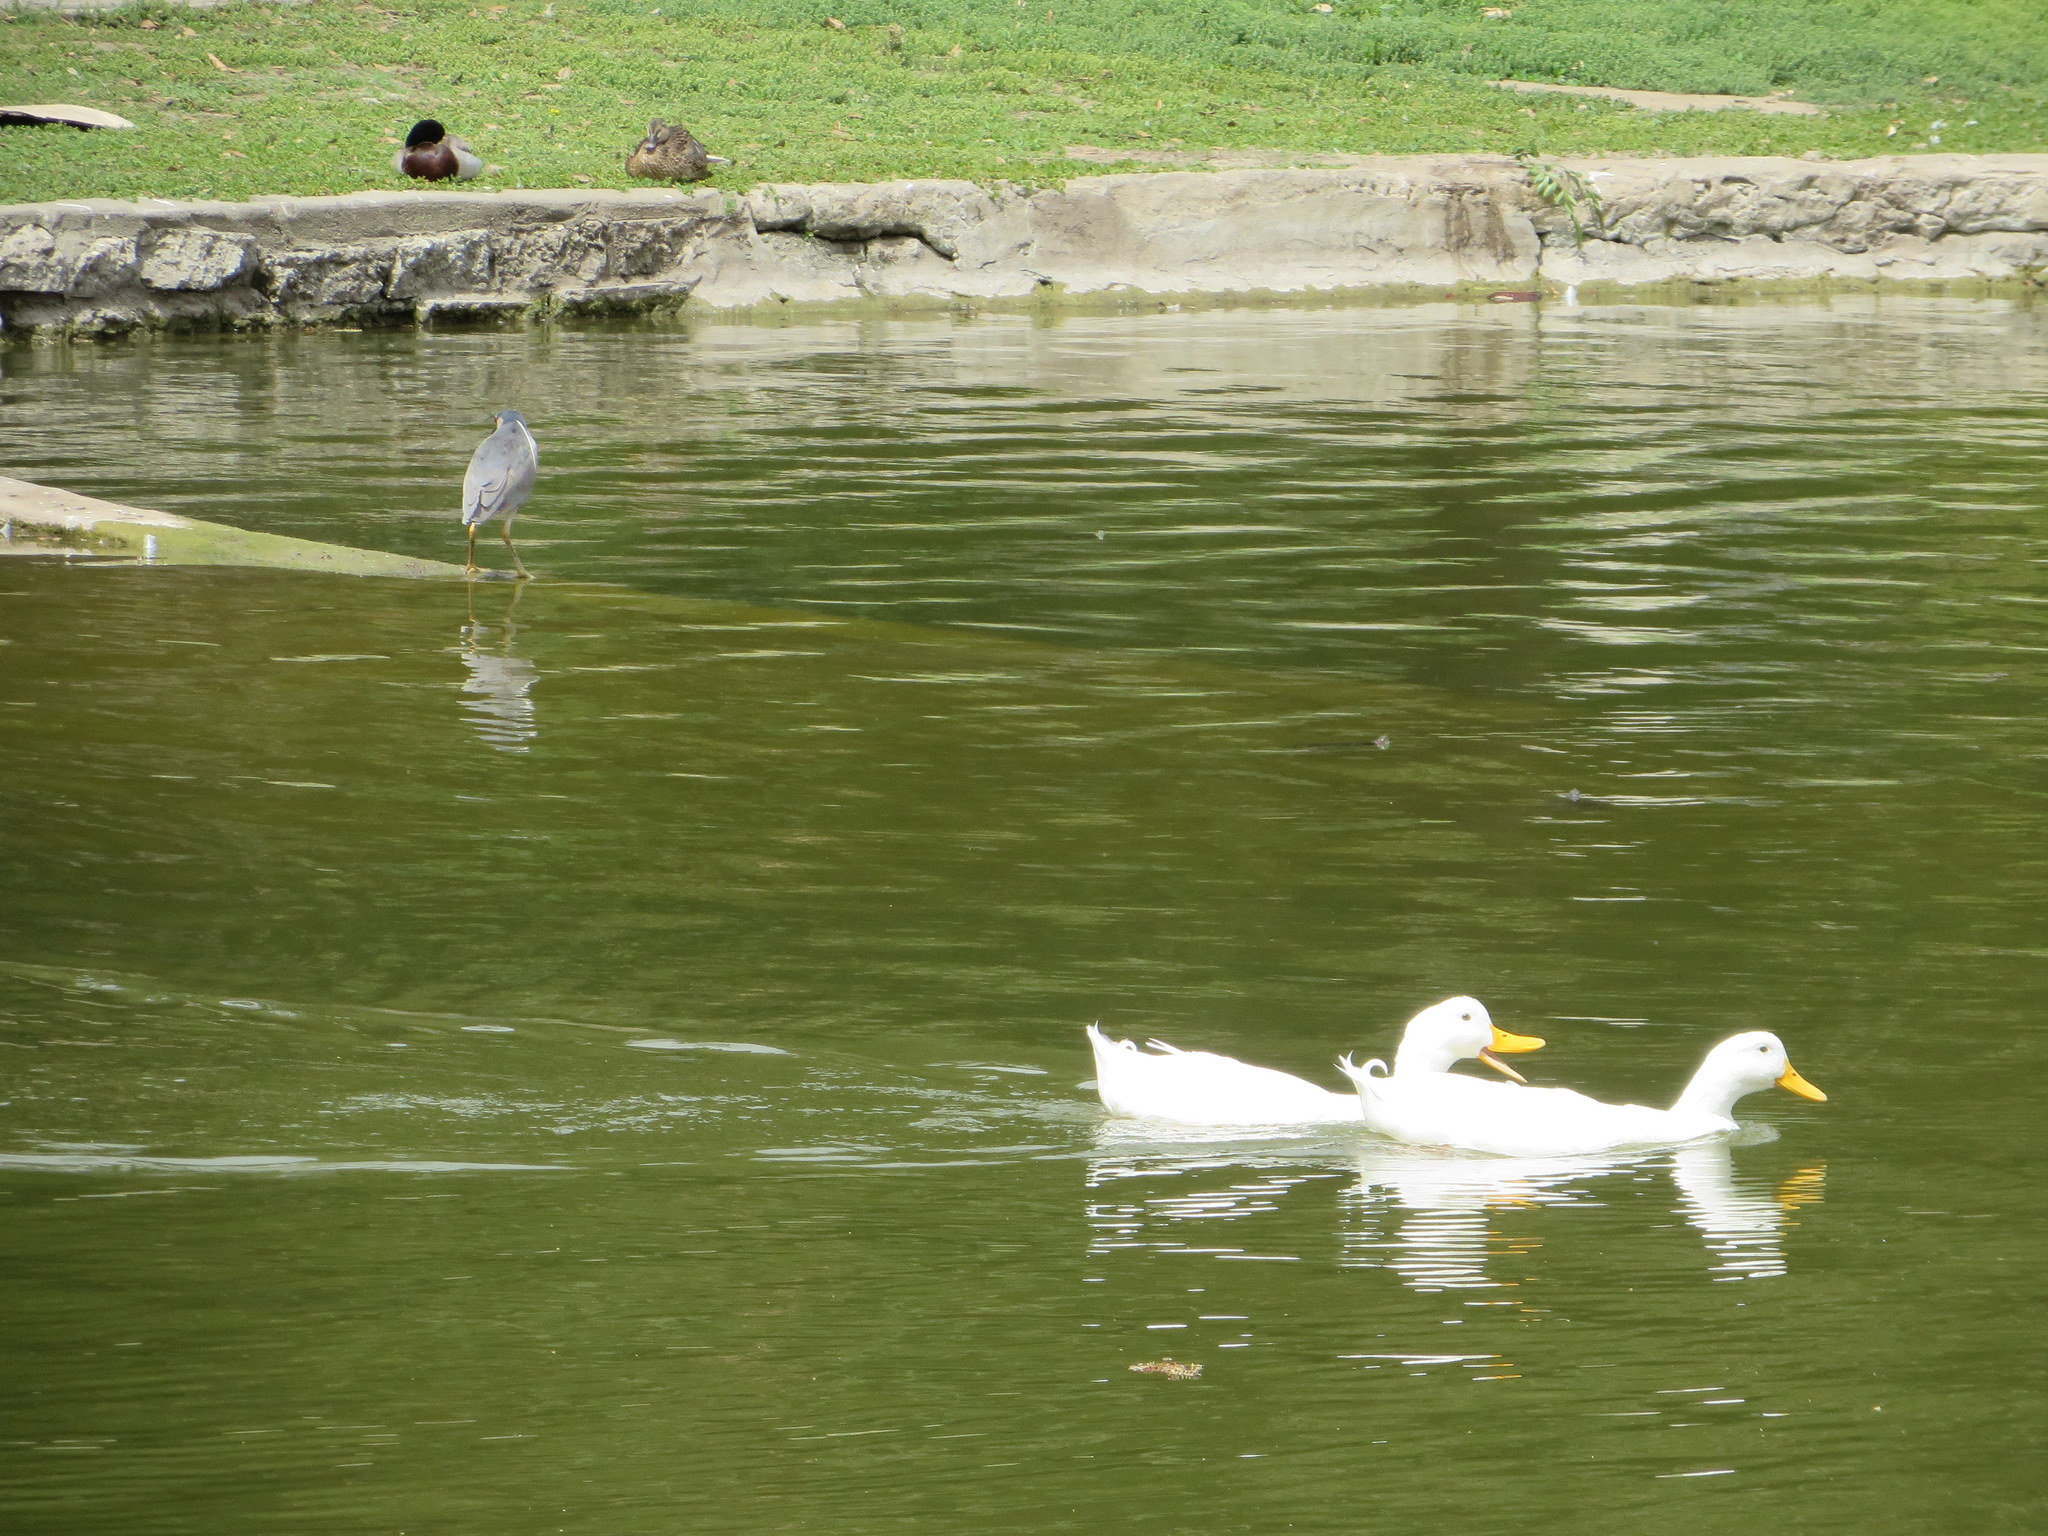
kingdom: Animalia
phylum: Chordata
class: Aves
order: Anseriformes
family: Anatidae
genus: Anas
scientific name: Anas platyrhynchos
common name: Mallard
